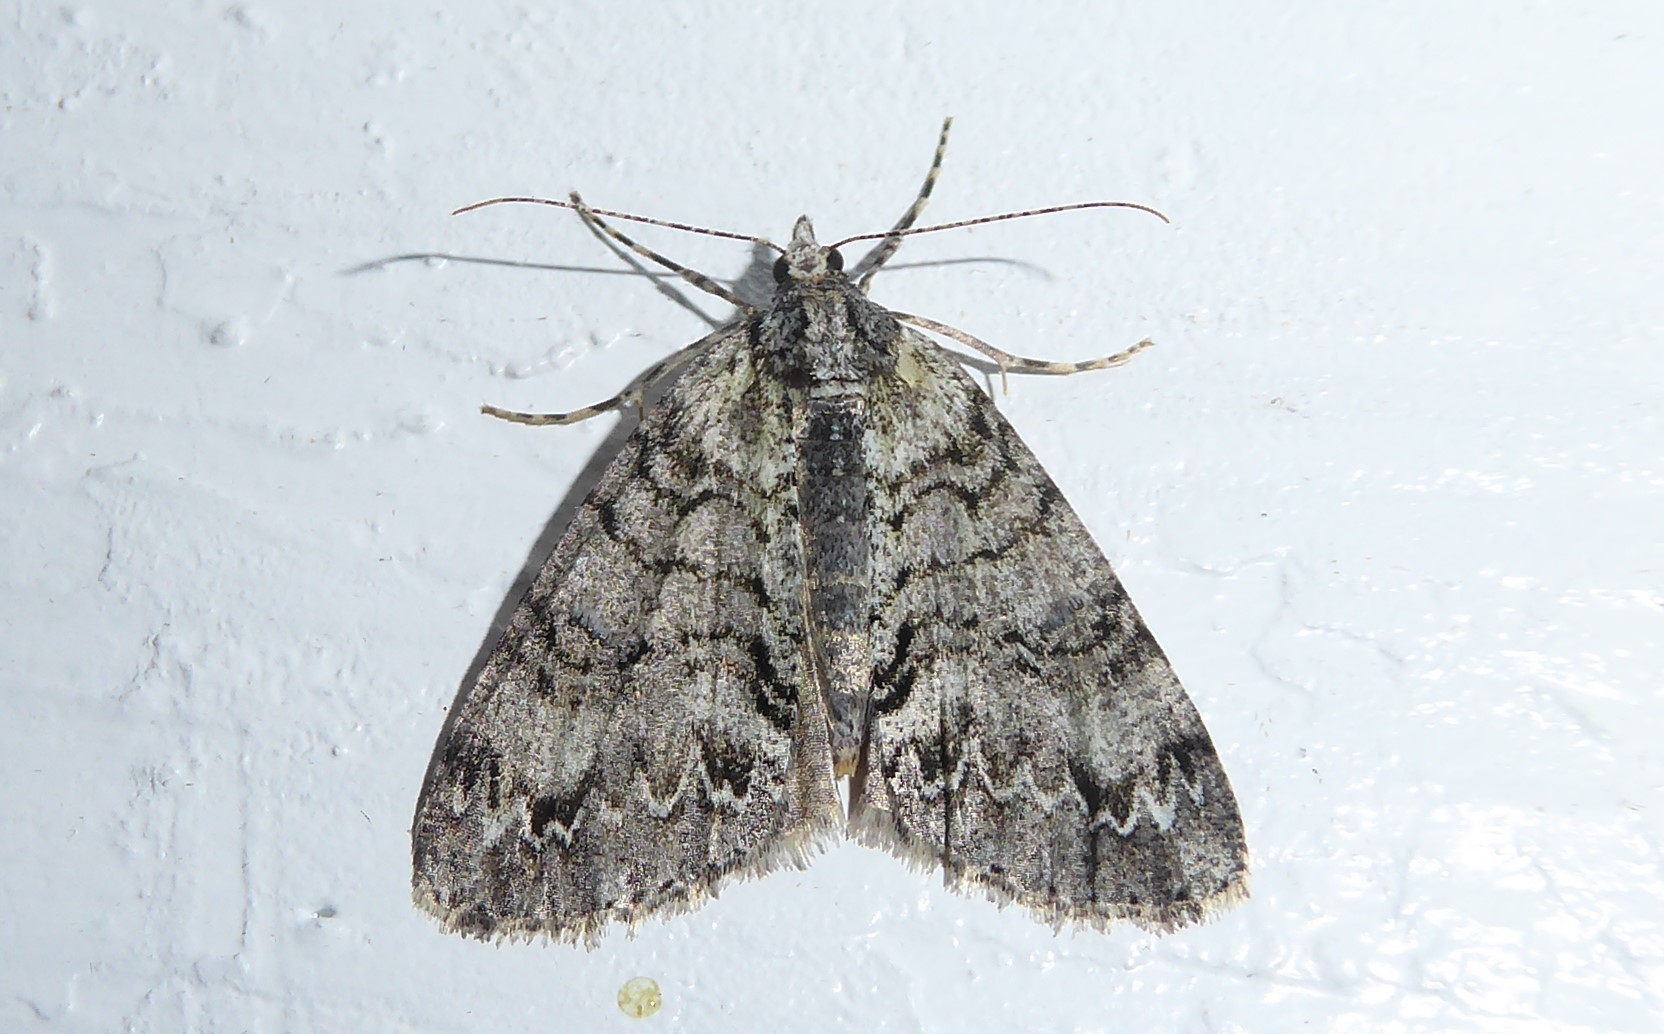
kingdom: Animalia
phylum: Arthropoda
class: Insecta
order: Lepidoptera
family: Geometridae
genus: Pseudocoremia
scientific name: Pseudocoremia suavis
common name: Common forest looper
